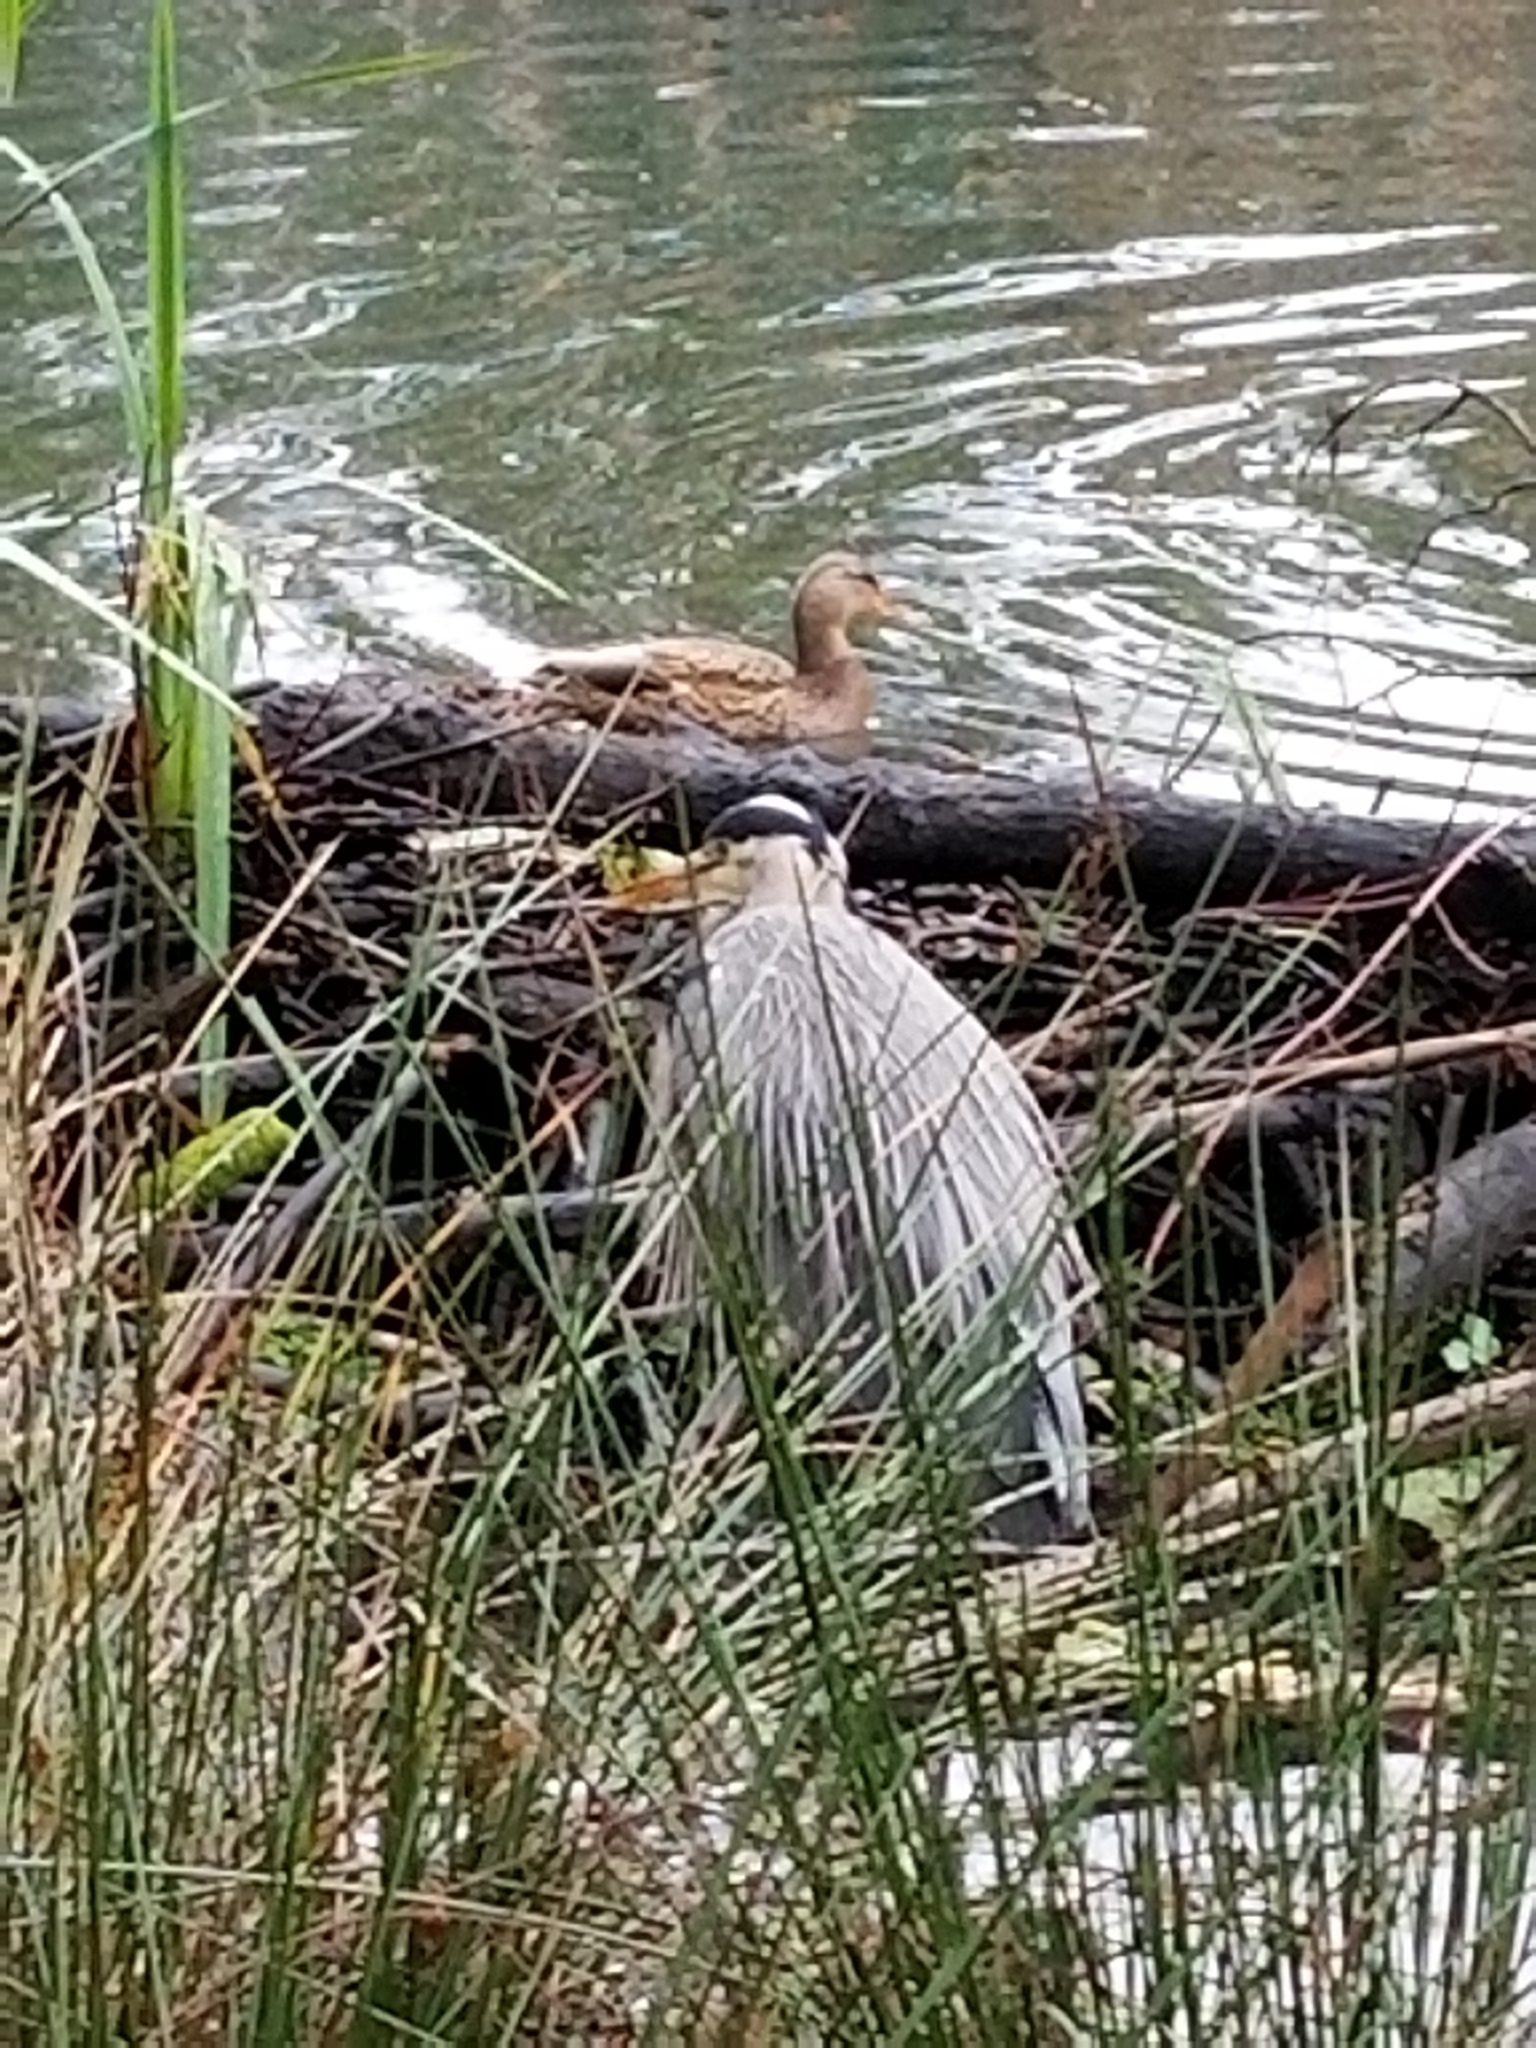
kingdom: Animalia
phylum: Chordata
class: Aves
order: Pelecaniformes
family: Ardeidae
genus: Ardea
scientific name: Ardea herodias
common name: Great blue heron
